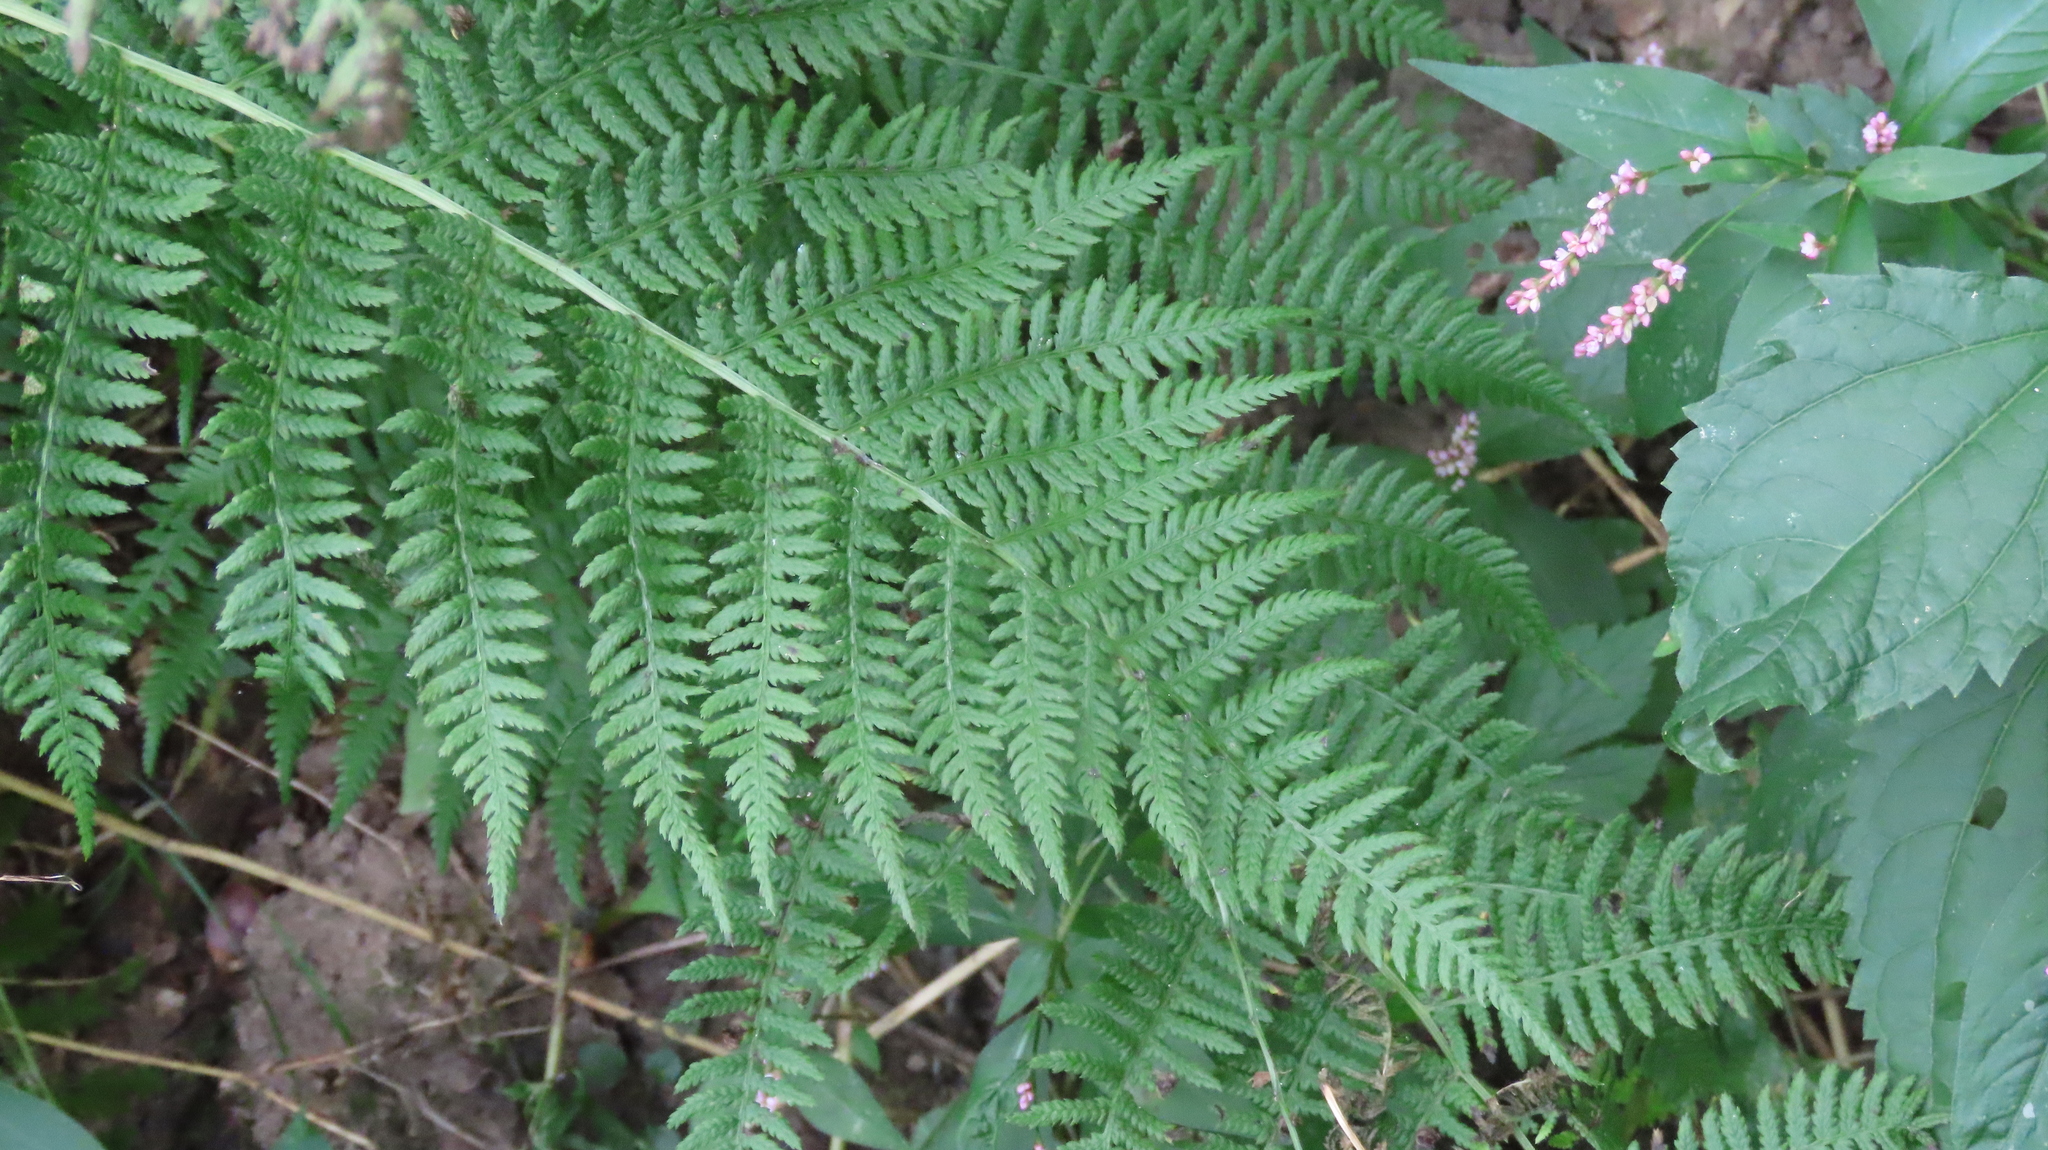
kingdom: Plantae
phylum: Tracheophyta
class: Polypodiopsida
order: Polypodiales
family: Athyriaceae
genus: Athyrium
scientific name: Athyrium angustum
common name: Northern lady fern
